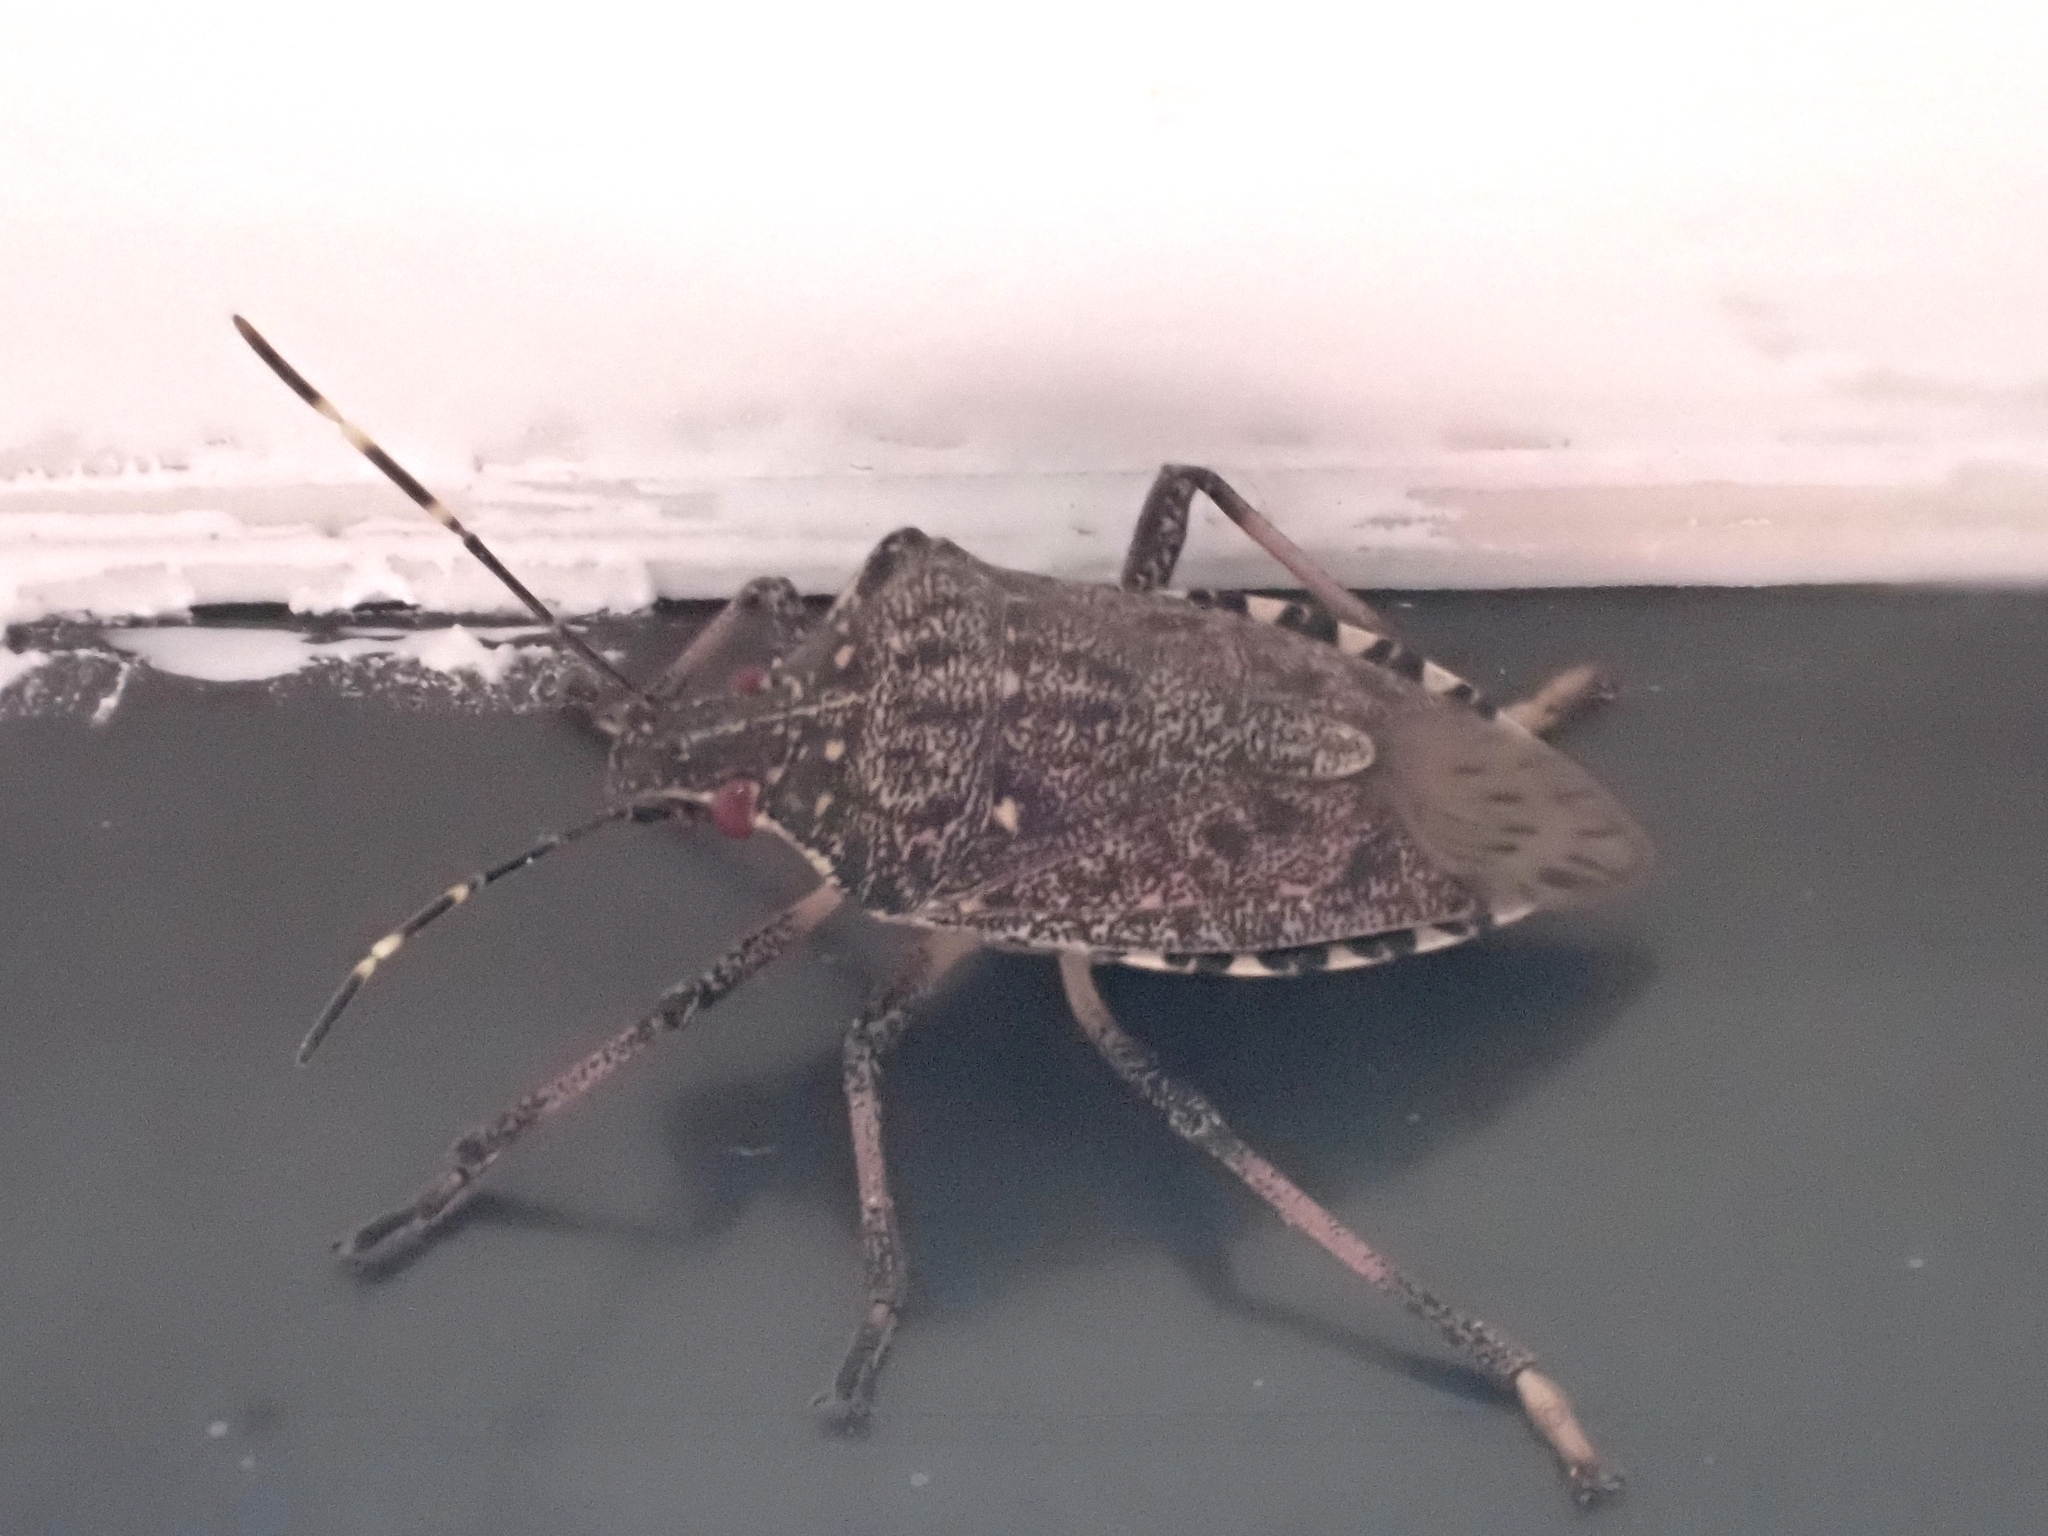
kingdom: Animalia
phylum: Arthropoda
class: Insecta
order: Hemiptera
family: Pentatomidae
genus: Halyomorpha
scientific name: Halyomorpha halys
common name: Brown marmorated stink bug
